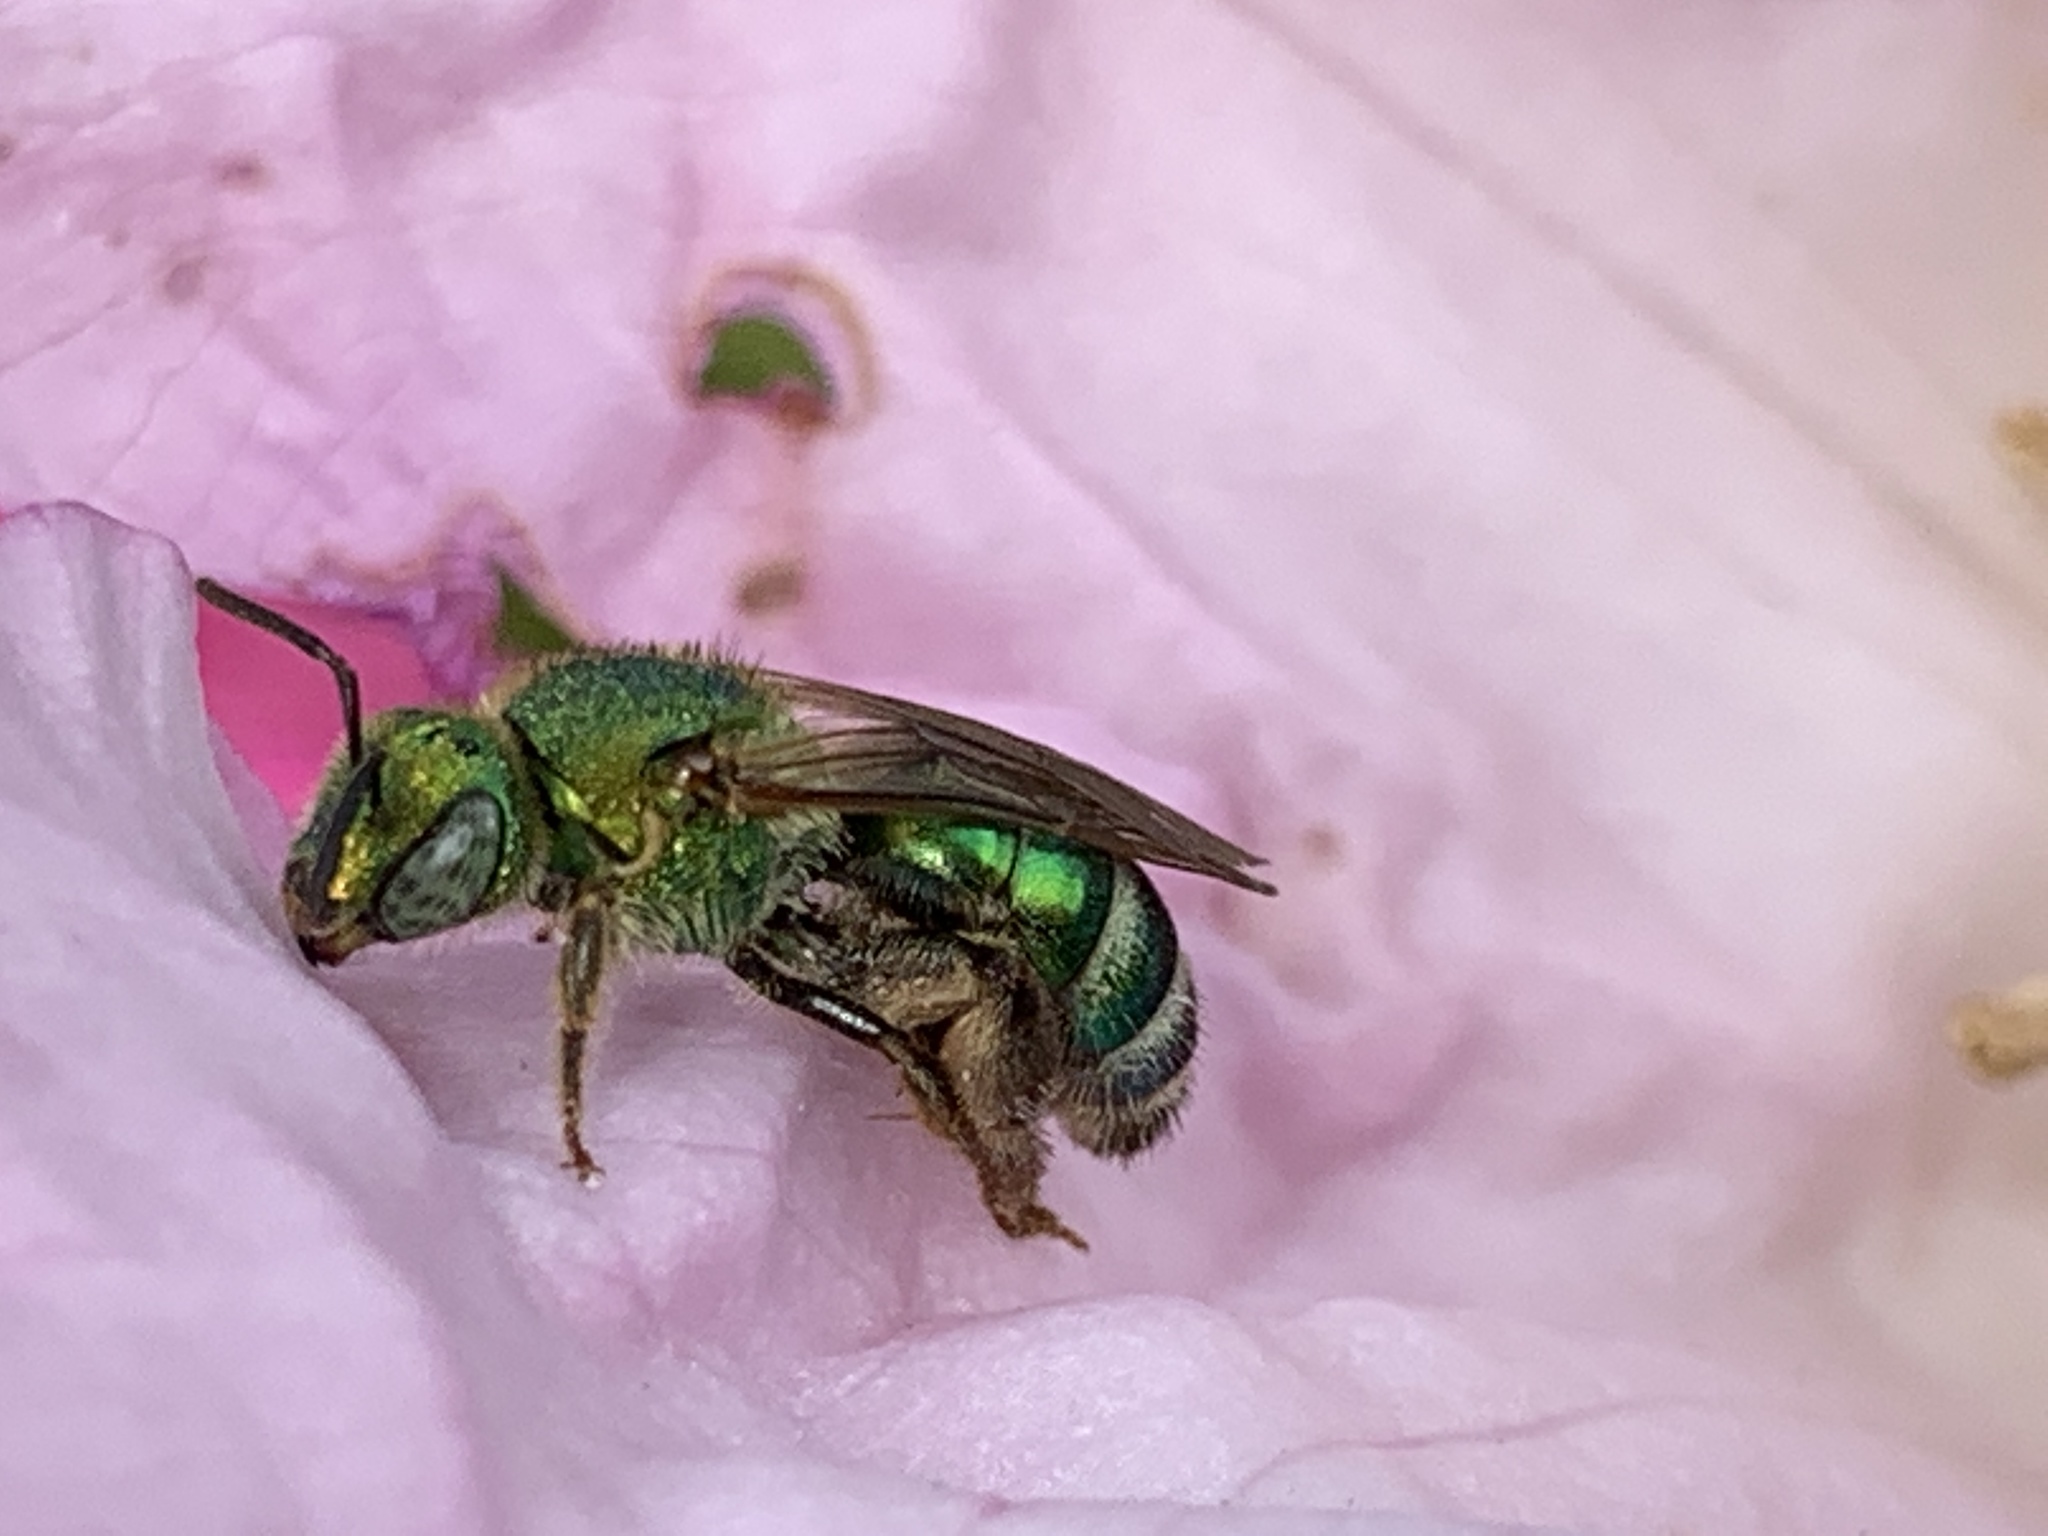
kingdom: Animalia
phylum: Arthropoda
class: Insecta
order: Hymenoptera
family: Halictidae
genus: Agapostemon
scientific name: Agapostemon sericeus
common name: Silky striped sweat bee
